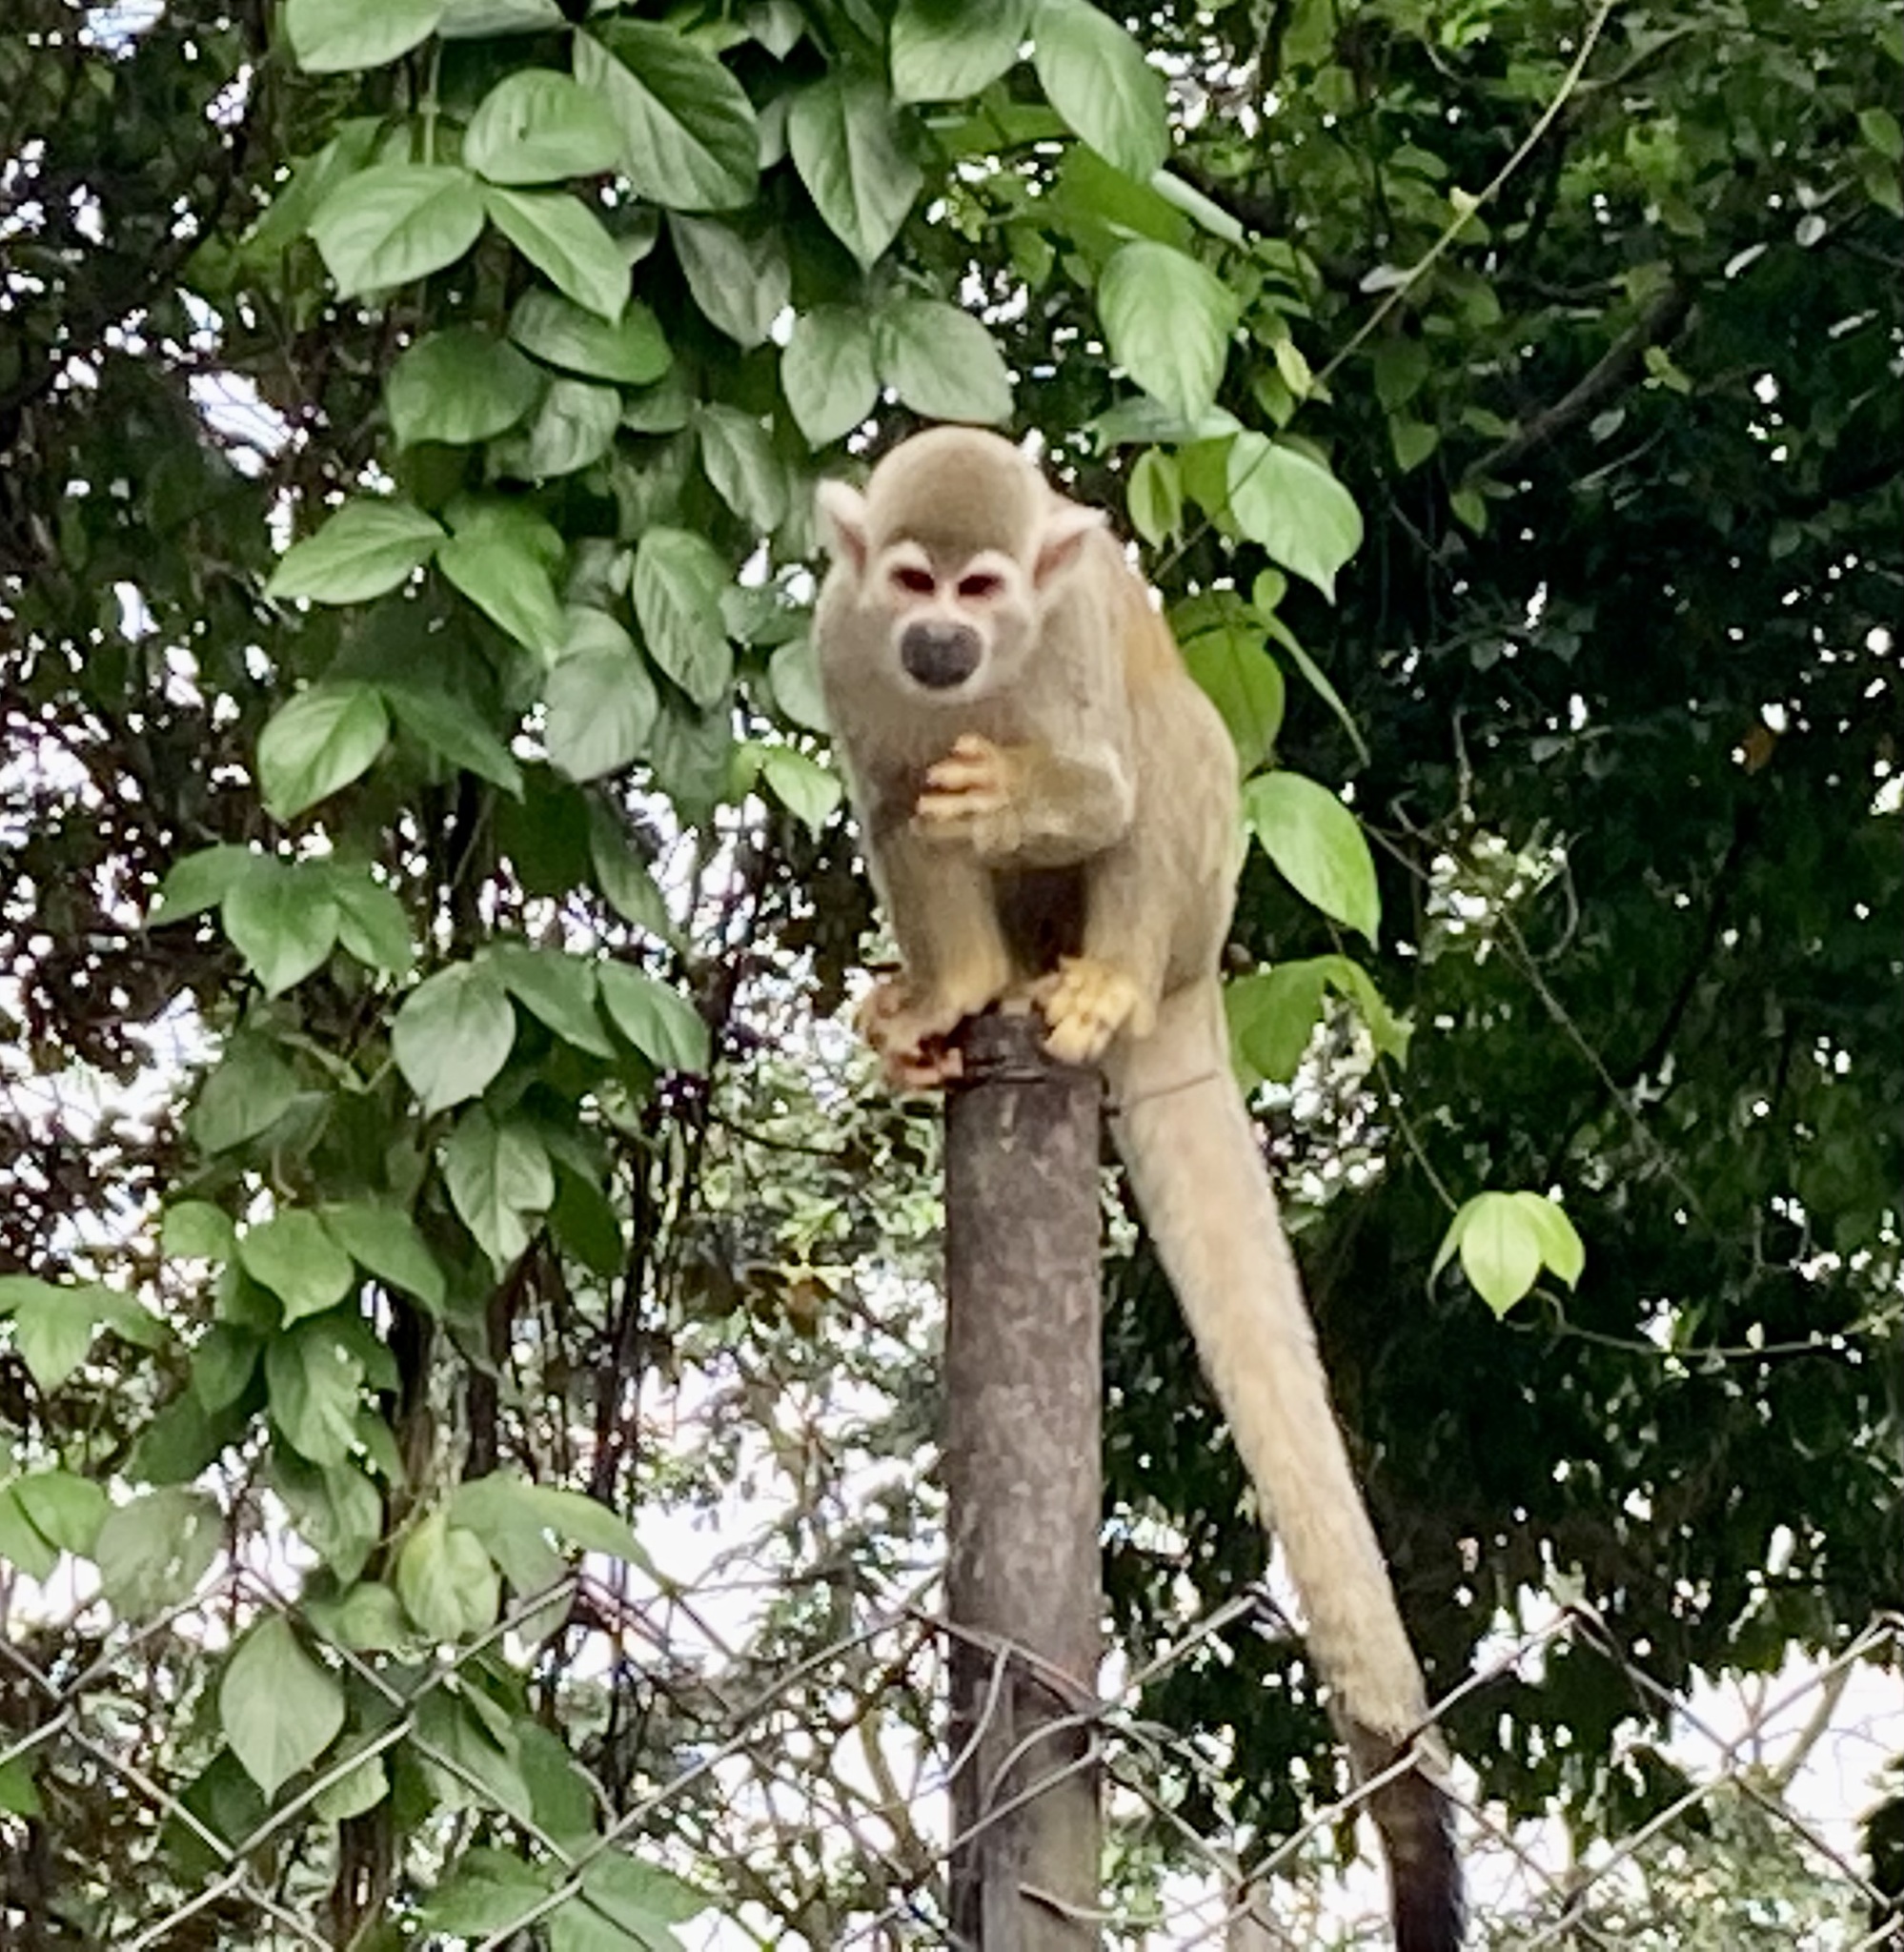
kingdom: Animalia
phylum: Chordata
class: Mammalia
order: Primates
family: Cebidae
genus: Saimiri
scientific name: Saimiri cassiquiarensis
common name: Humboldt’s squirrel monkey
